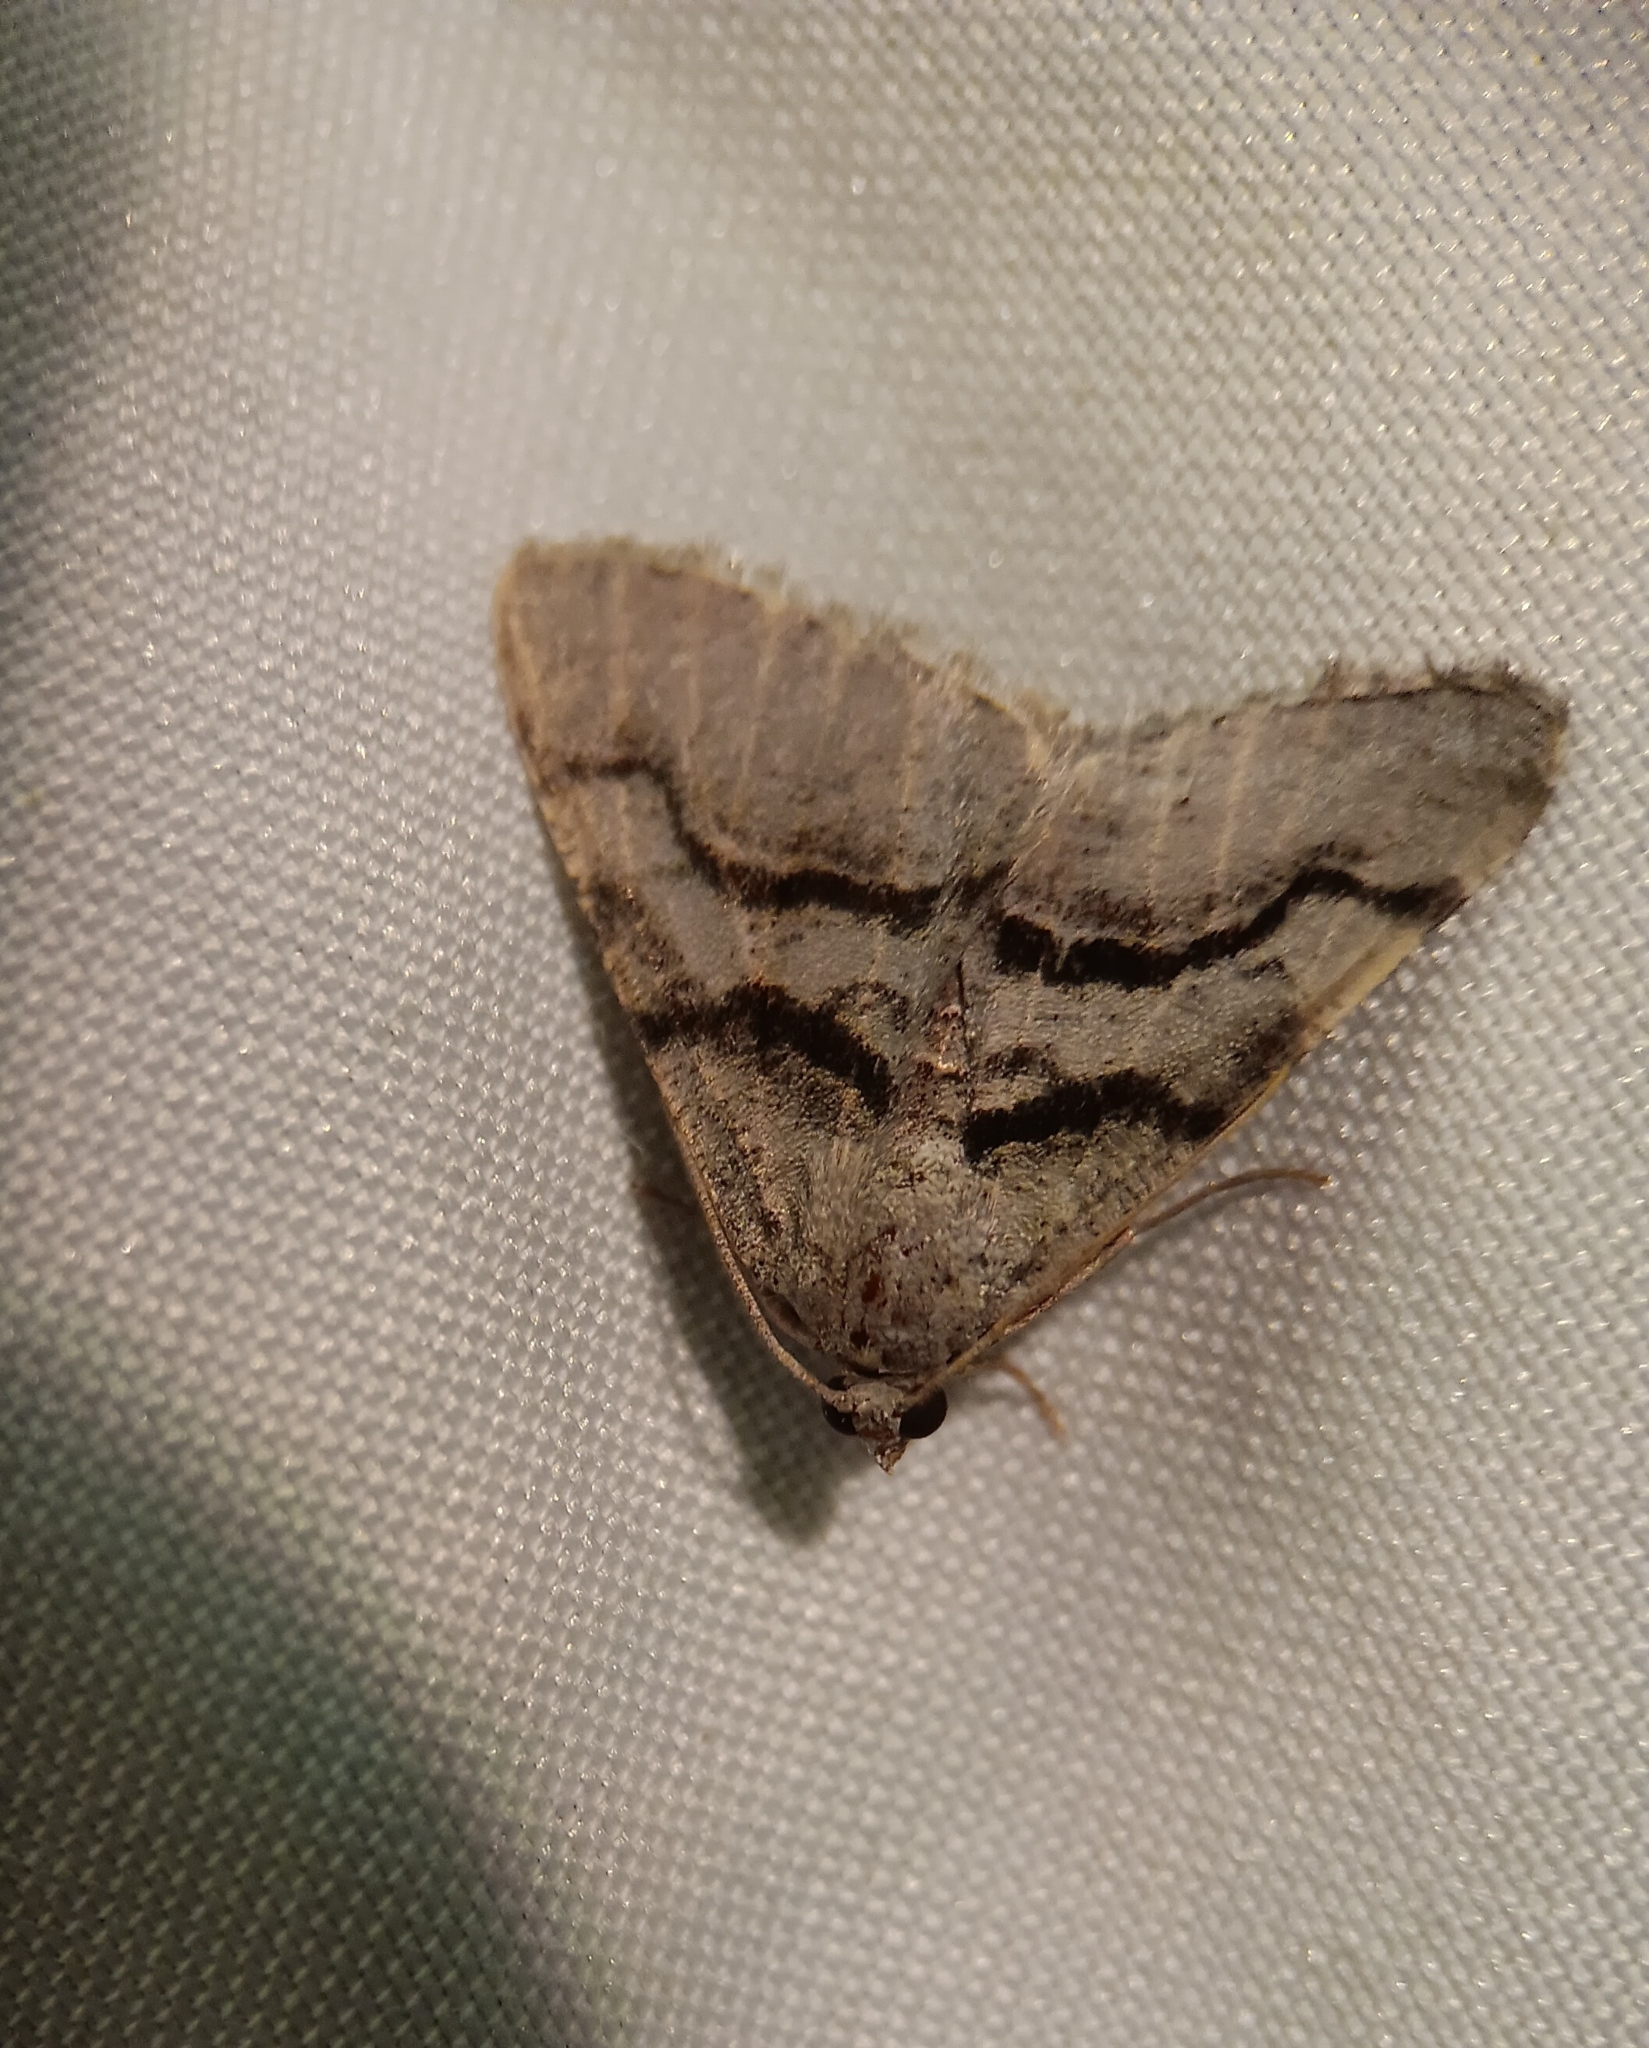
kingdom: Animalia
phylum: Arthropoda
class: Insecta
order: Lepidoptera
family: Geometridae
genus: Digrammia
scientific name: Digrammia continuata
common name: Curve-lined angle
